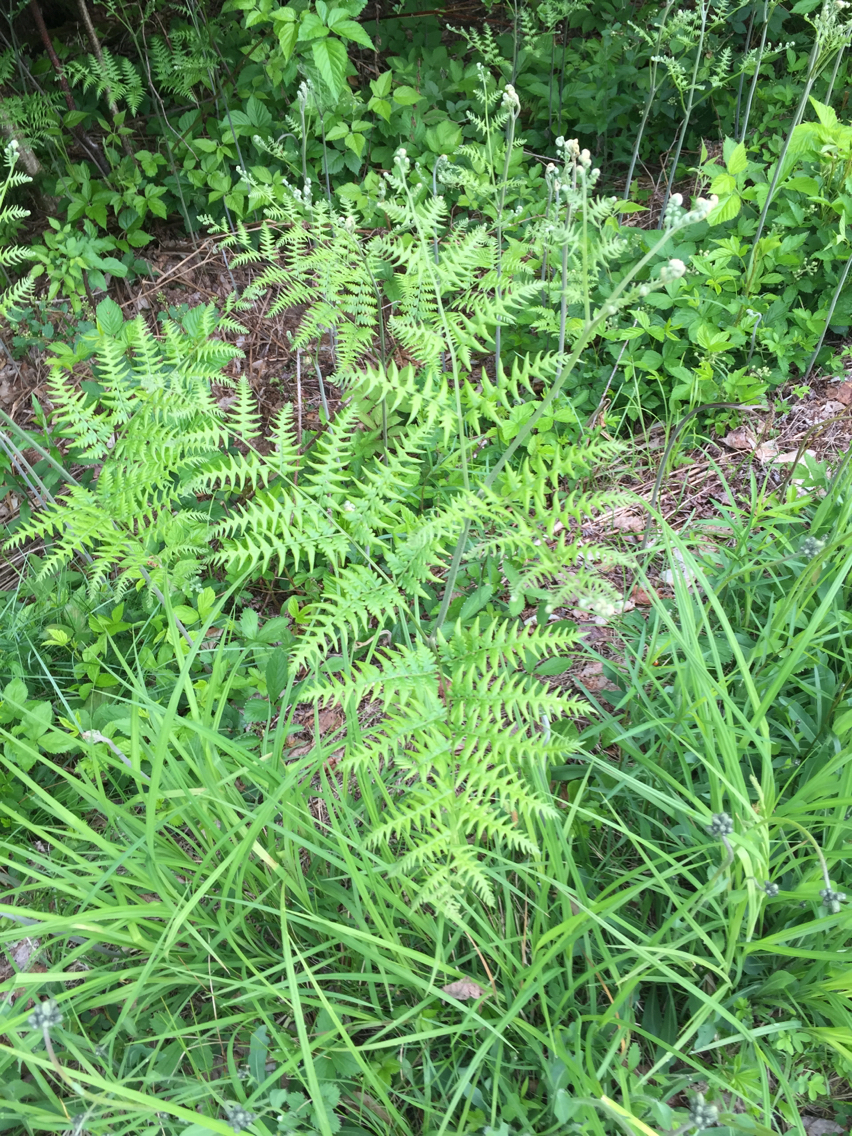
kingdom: Plantae
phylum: Tracheophyta
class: Polypodiopsida
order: Polypodiales
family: Dennstaedtiaceae
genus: Pteridium
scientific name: Pteridium aquilinum
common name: Bracken
